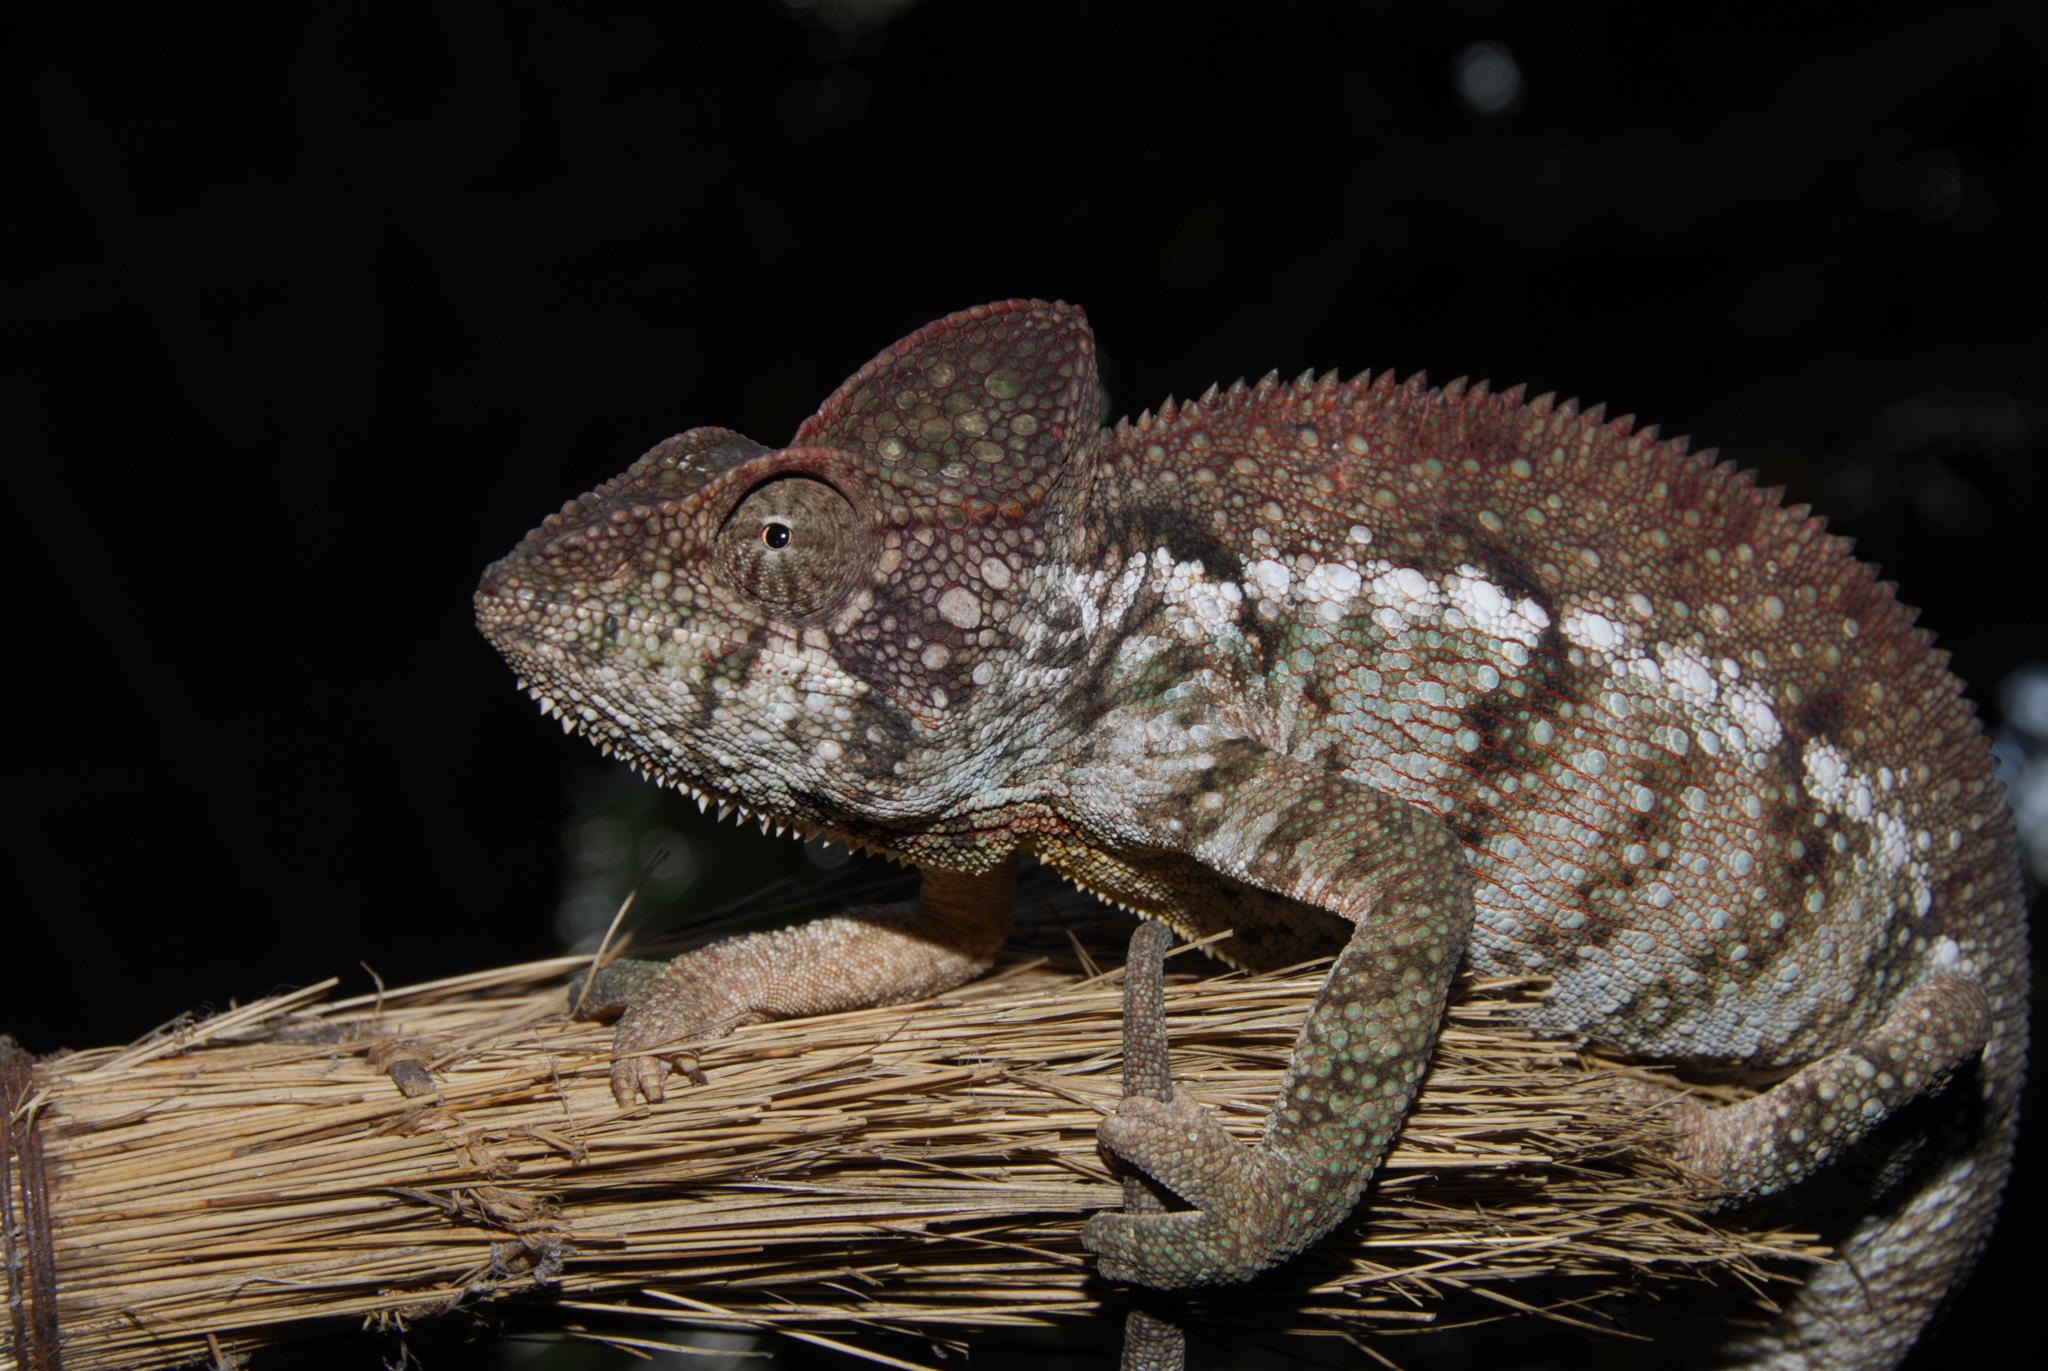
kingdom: Animalia
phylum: Chordata
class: Squamata
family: Chamaeleonidae
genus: Furcifer
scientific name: Furcifer oustaleti
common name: Oustalet's chameleon
